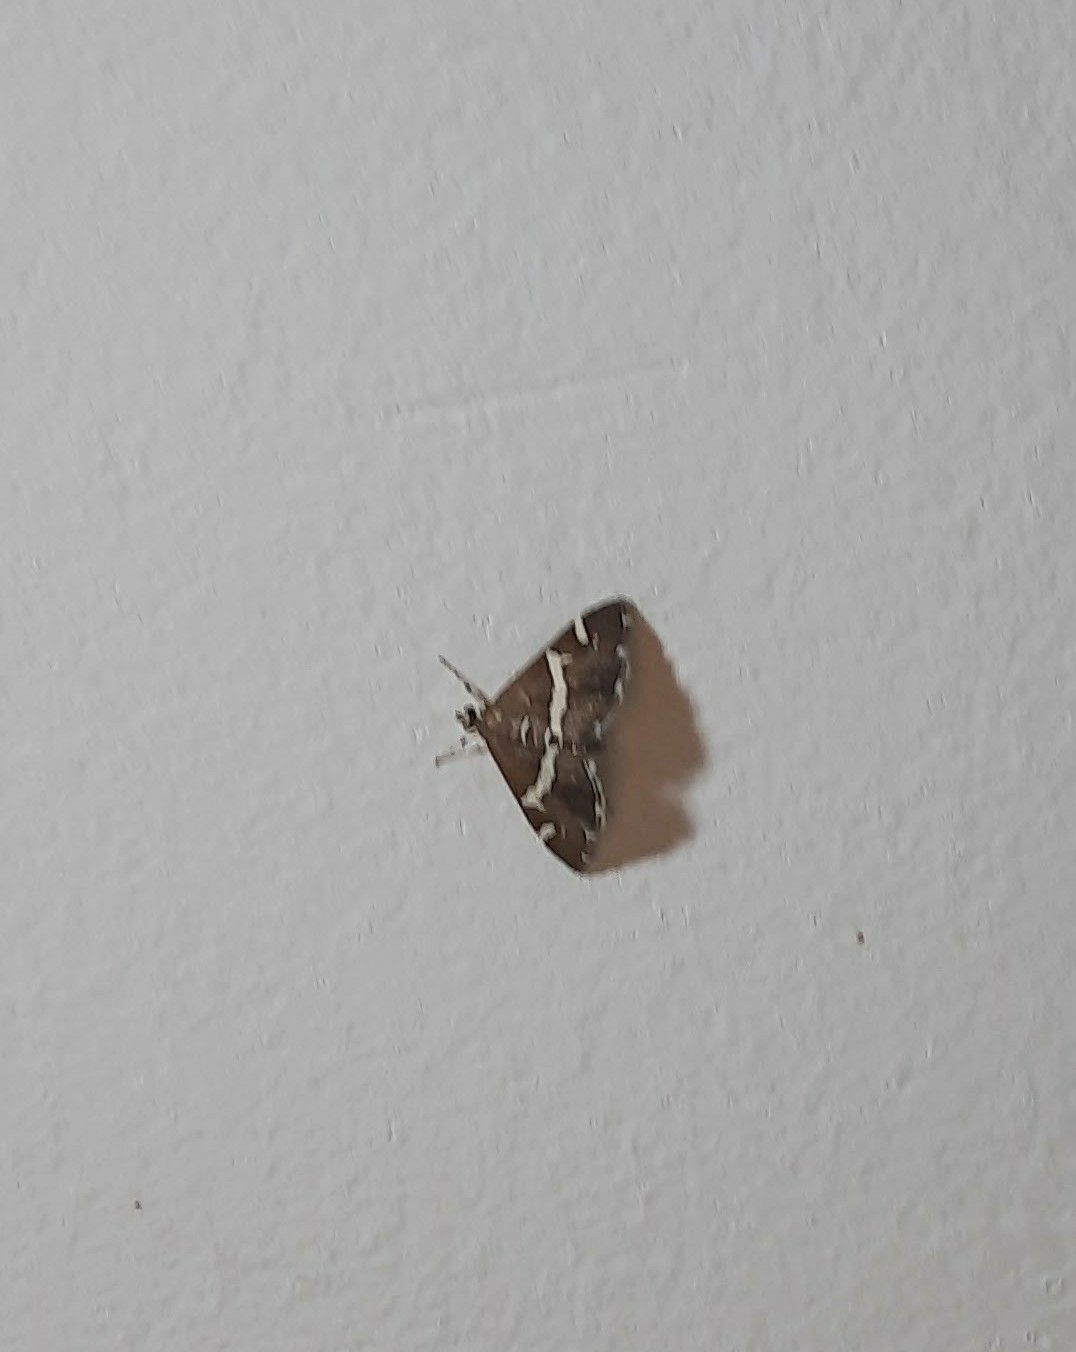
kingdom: Animalia
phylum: Arthropoda
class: Insecta
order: Lepidoptera
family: Crambidae
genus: Spoladea
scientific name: Spoladea recurvalis
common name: Beet webworm moth
